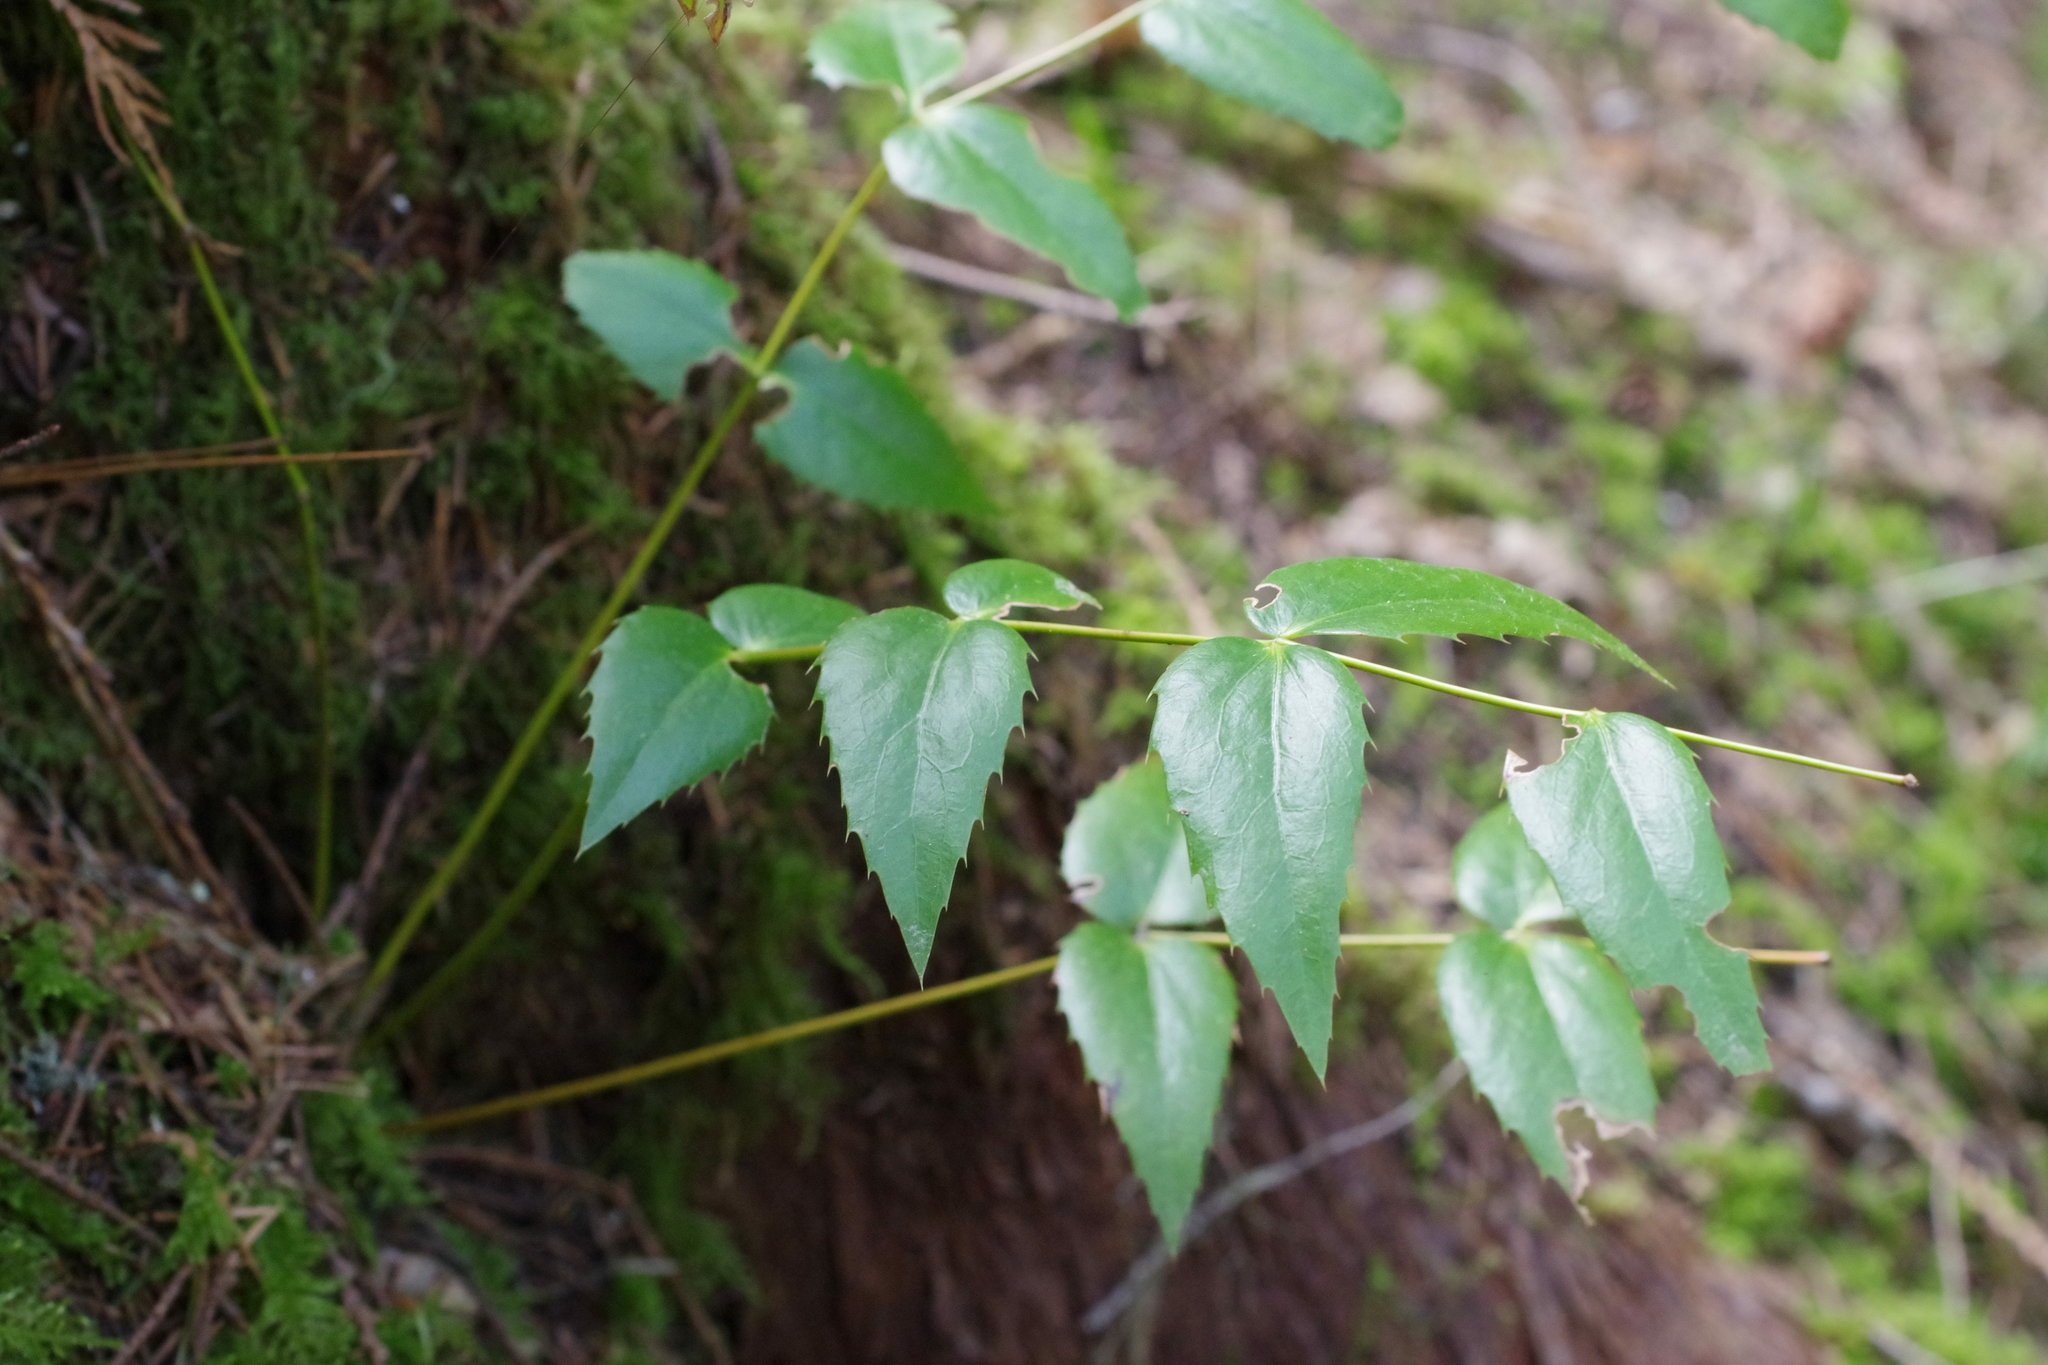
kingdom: Plantae
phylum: Tracheophyta
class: Magnoliopsida
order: Ranunculales
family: Berberidaceae
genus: Mahonia
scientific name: Mahonia nervosa
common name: Cascade oregon-grape
